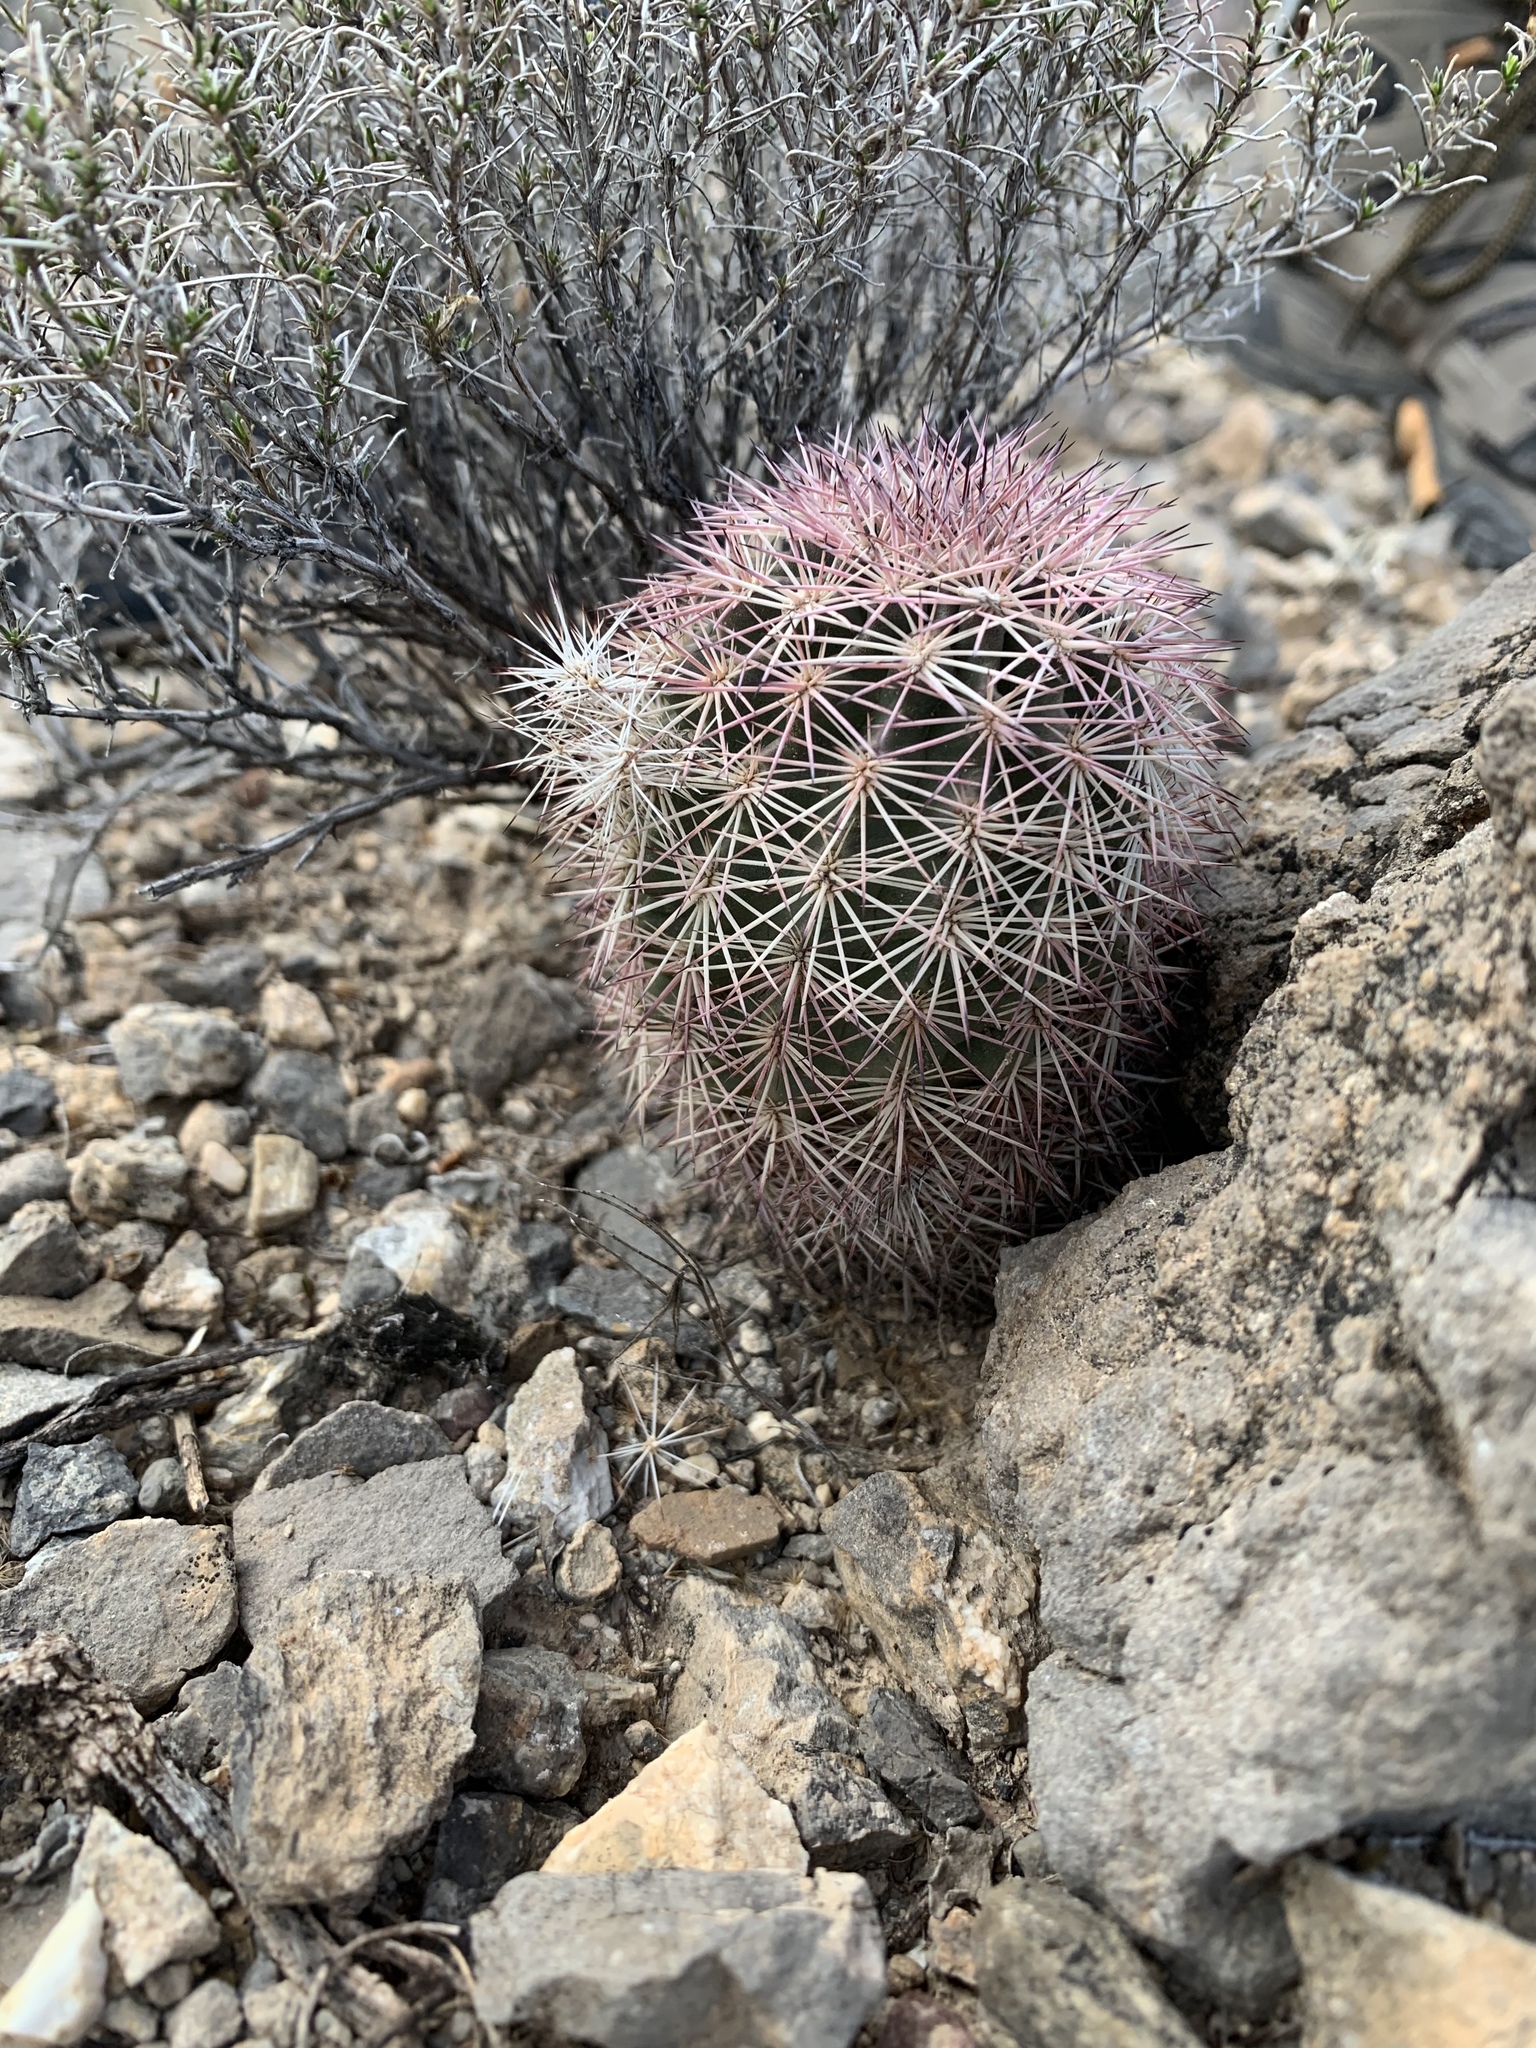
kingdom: Plantae
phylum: Tracheophyta
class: Magnoliopsida
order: Caryophyllales
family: Cactaceae
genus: Echinocereus
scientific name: Echinocereus dasyacanthus
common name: Spiny hedgehog cactus
